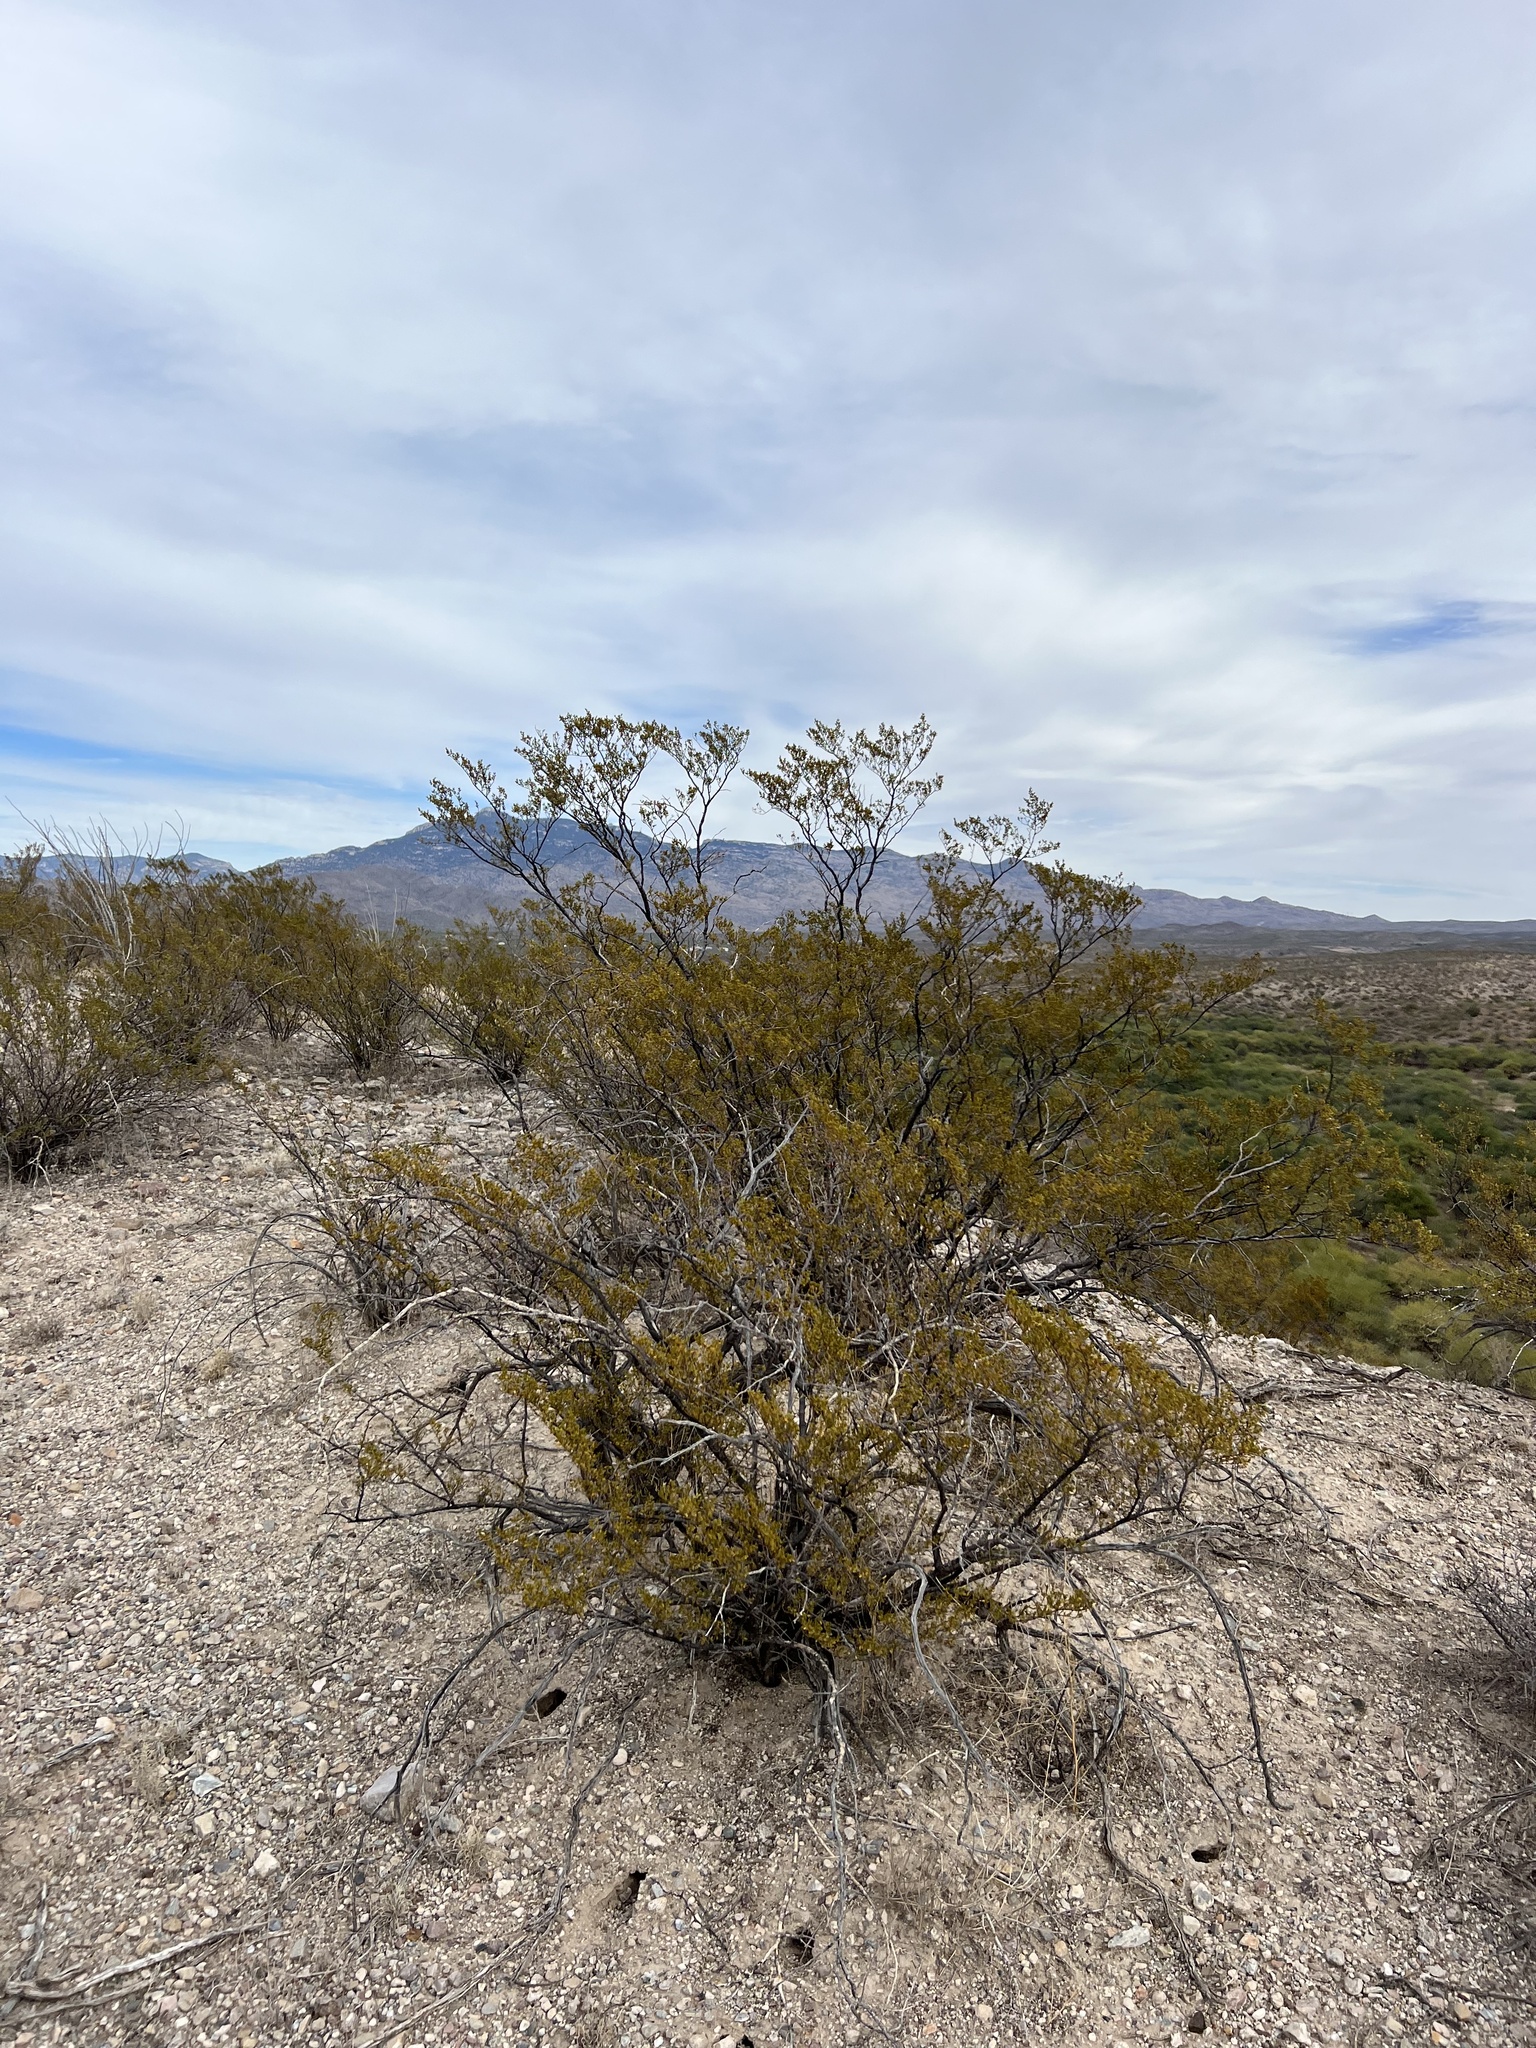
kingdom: Plantae
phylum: Tracheophyta
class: Magnoliopsida
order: Zygophyllales
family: Zygophyllaceae
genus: Larrea
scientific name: Larrea tridentata
